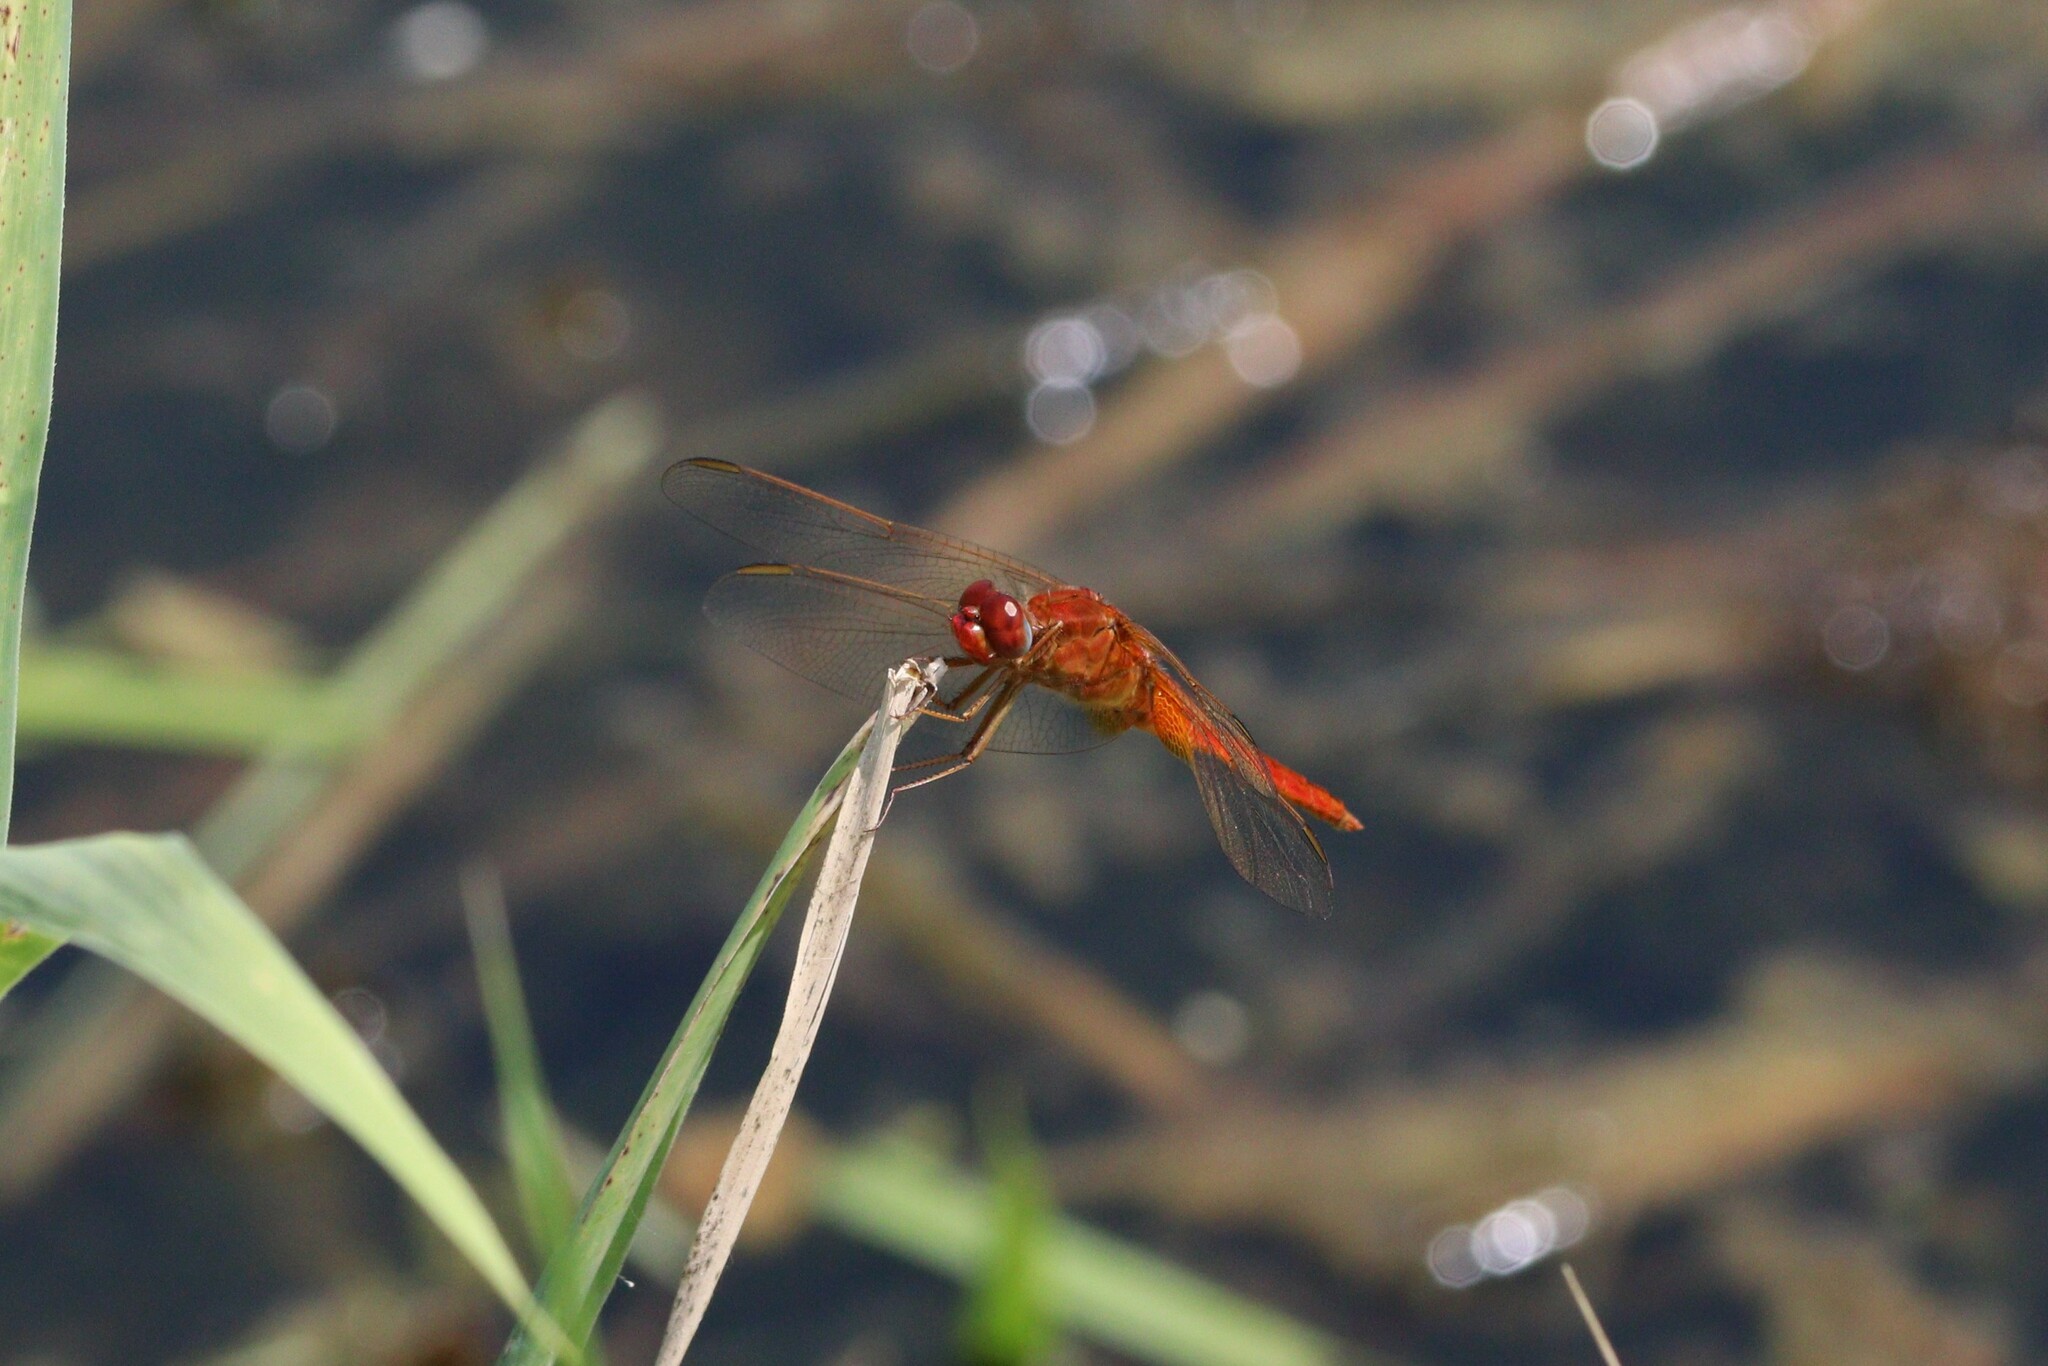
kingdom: Animalia
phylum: Arthropoda
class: Insecta
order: Odonata
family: Libellulidae
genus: Crocothemis
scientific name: Crocothemis erythraea
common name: Scarlet dragonfly
